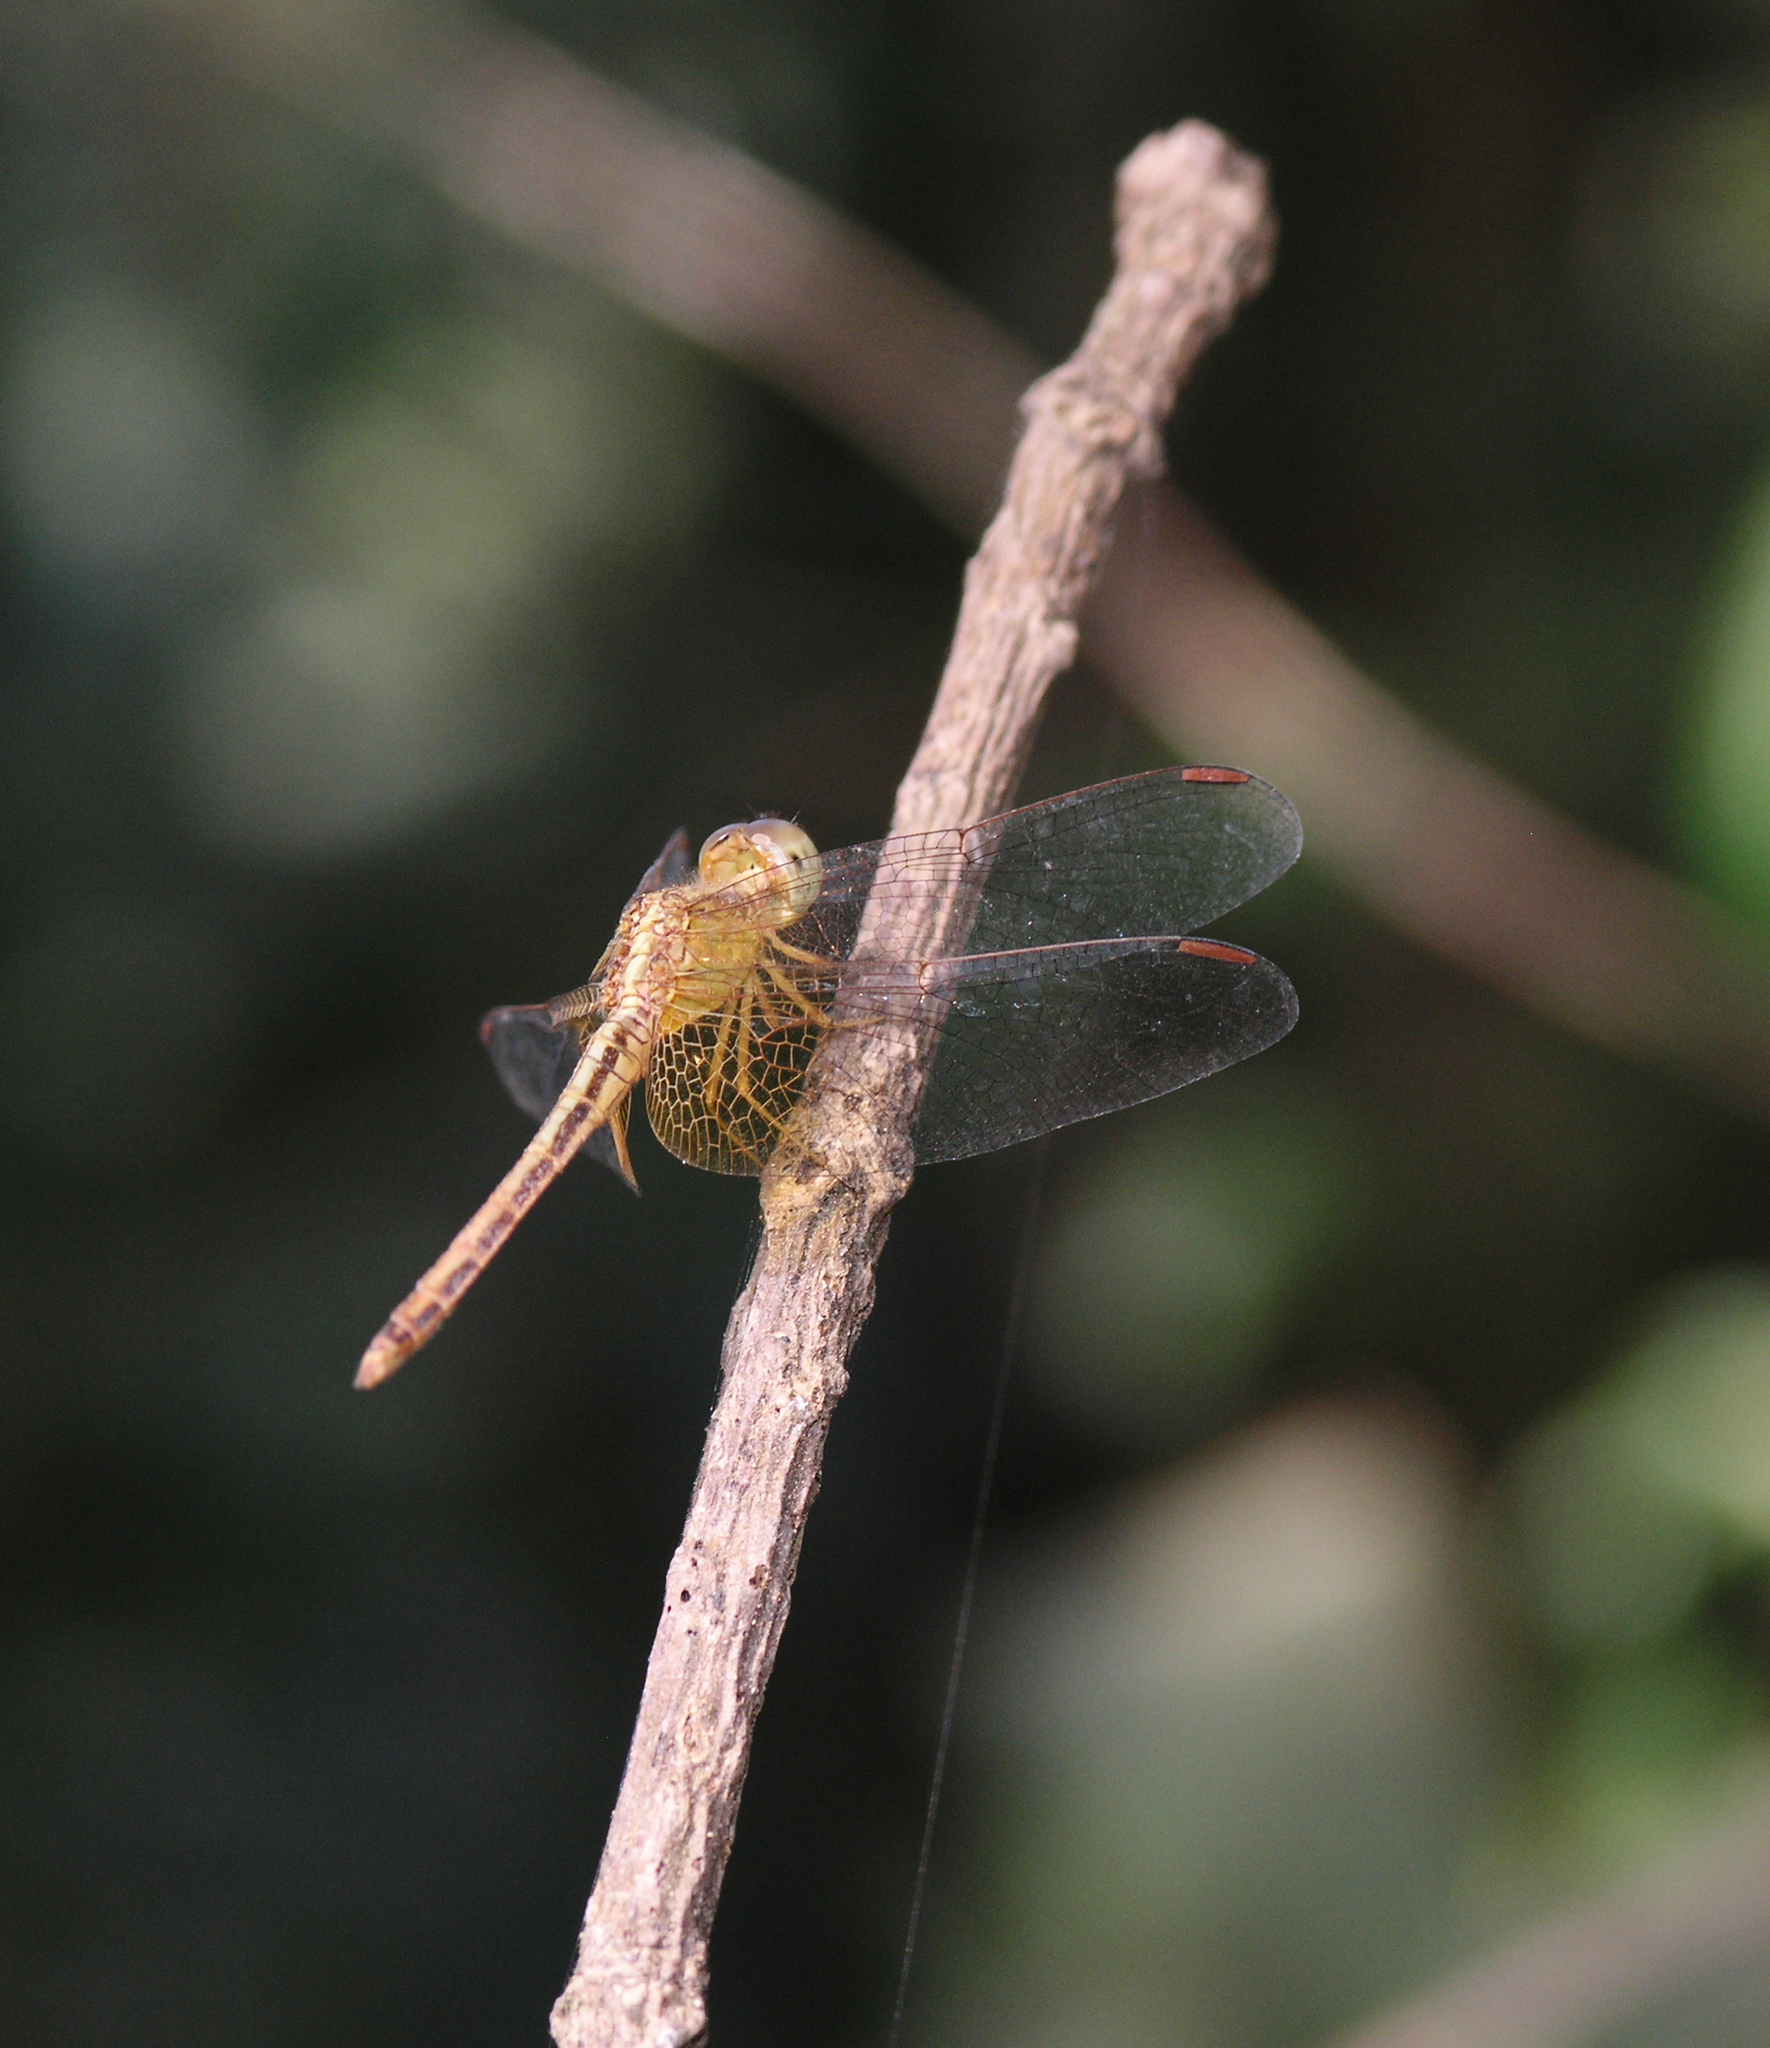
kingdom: Animalia
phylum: Arthropoda
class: Insecta
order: Odonata
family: Libellulidae
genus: Neurothemis
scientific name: Neurothemis intermedia
